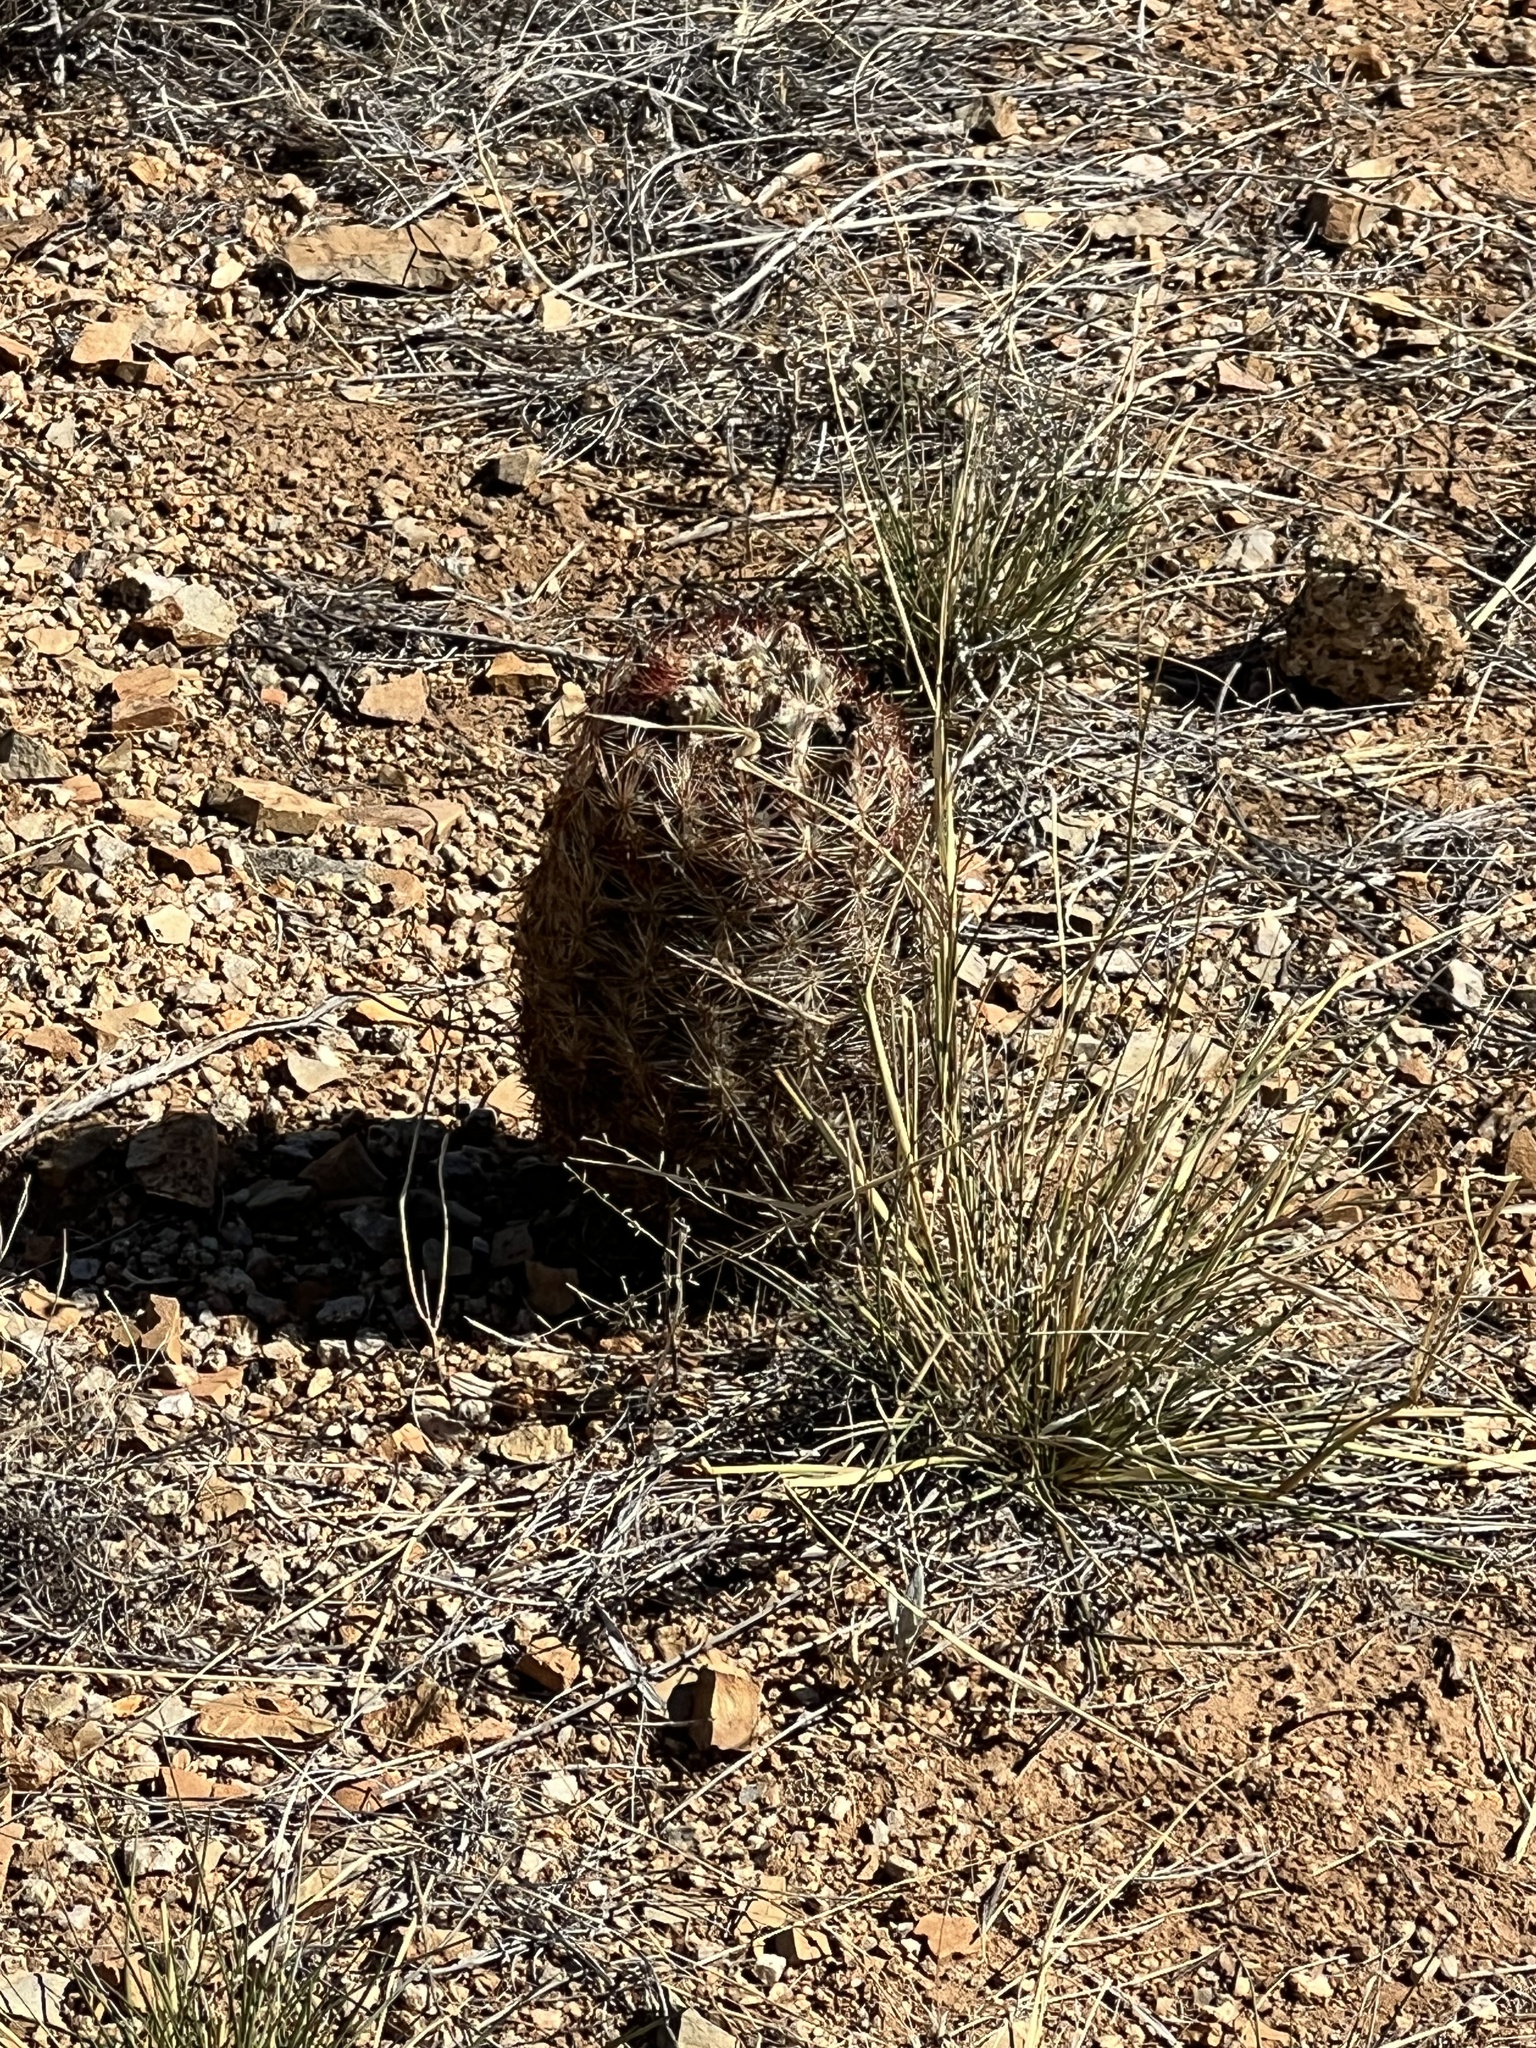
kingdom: Plantae
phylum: Tracheophyta
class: Magnoliopsida
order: Caryophyllales
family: Cactaceae
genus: Sclerocactus
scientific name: Sclerocactus intertextus
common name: White fish-hook cactus
